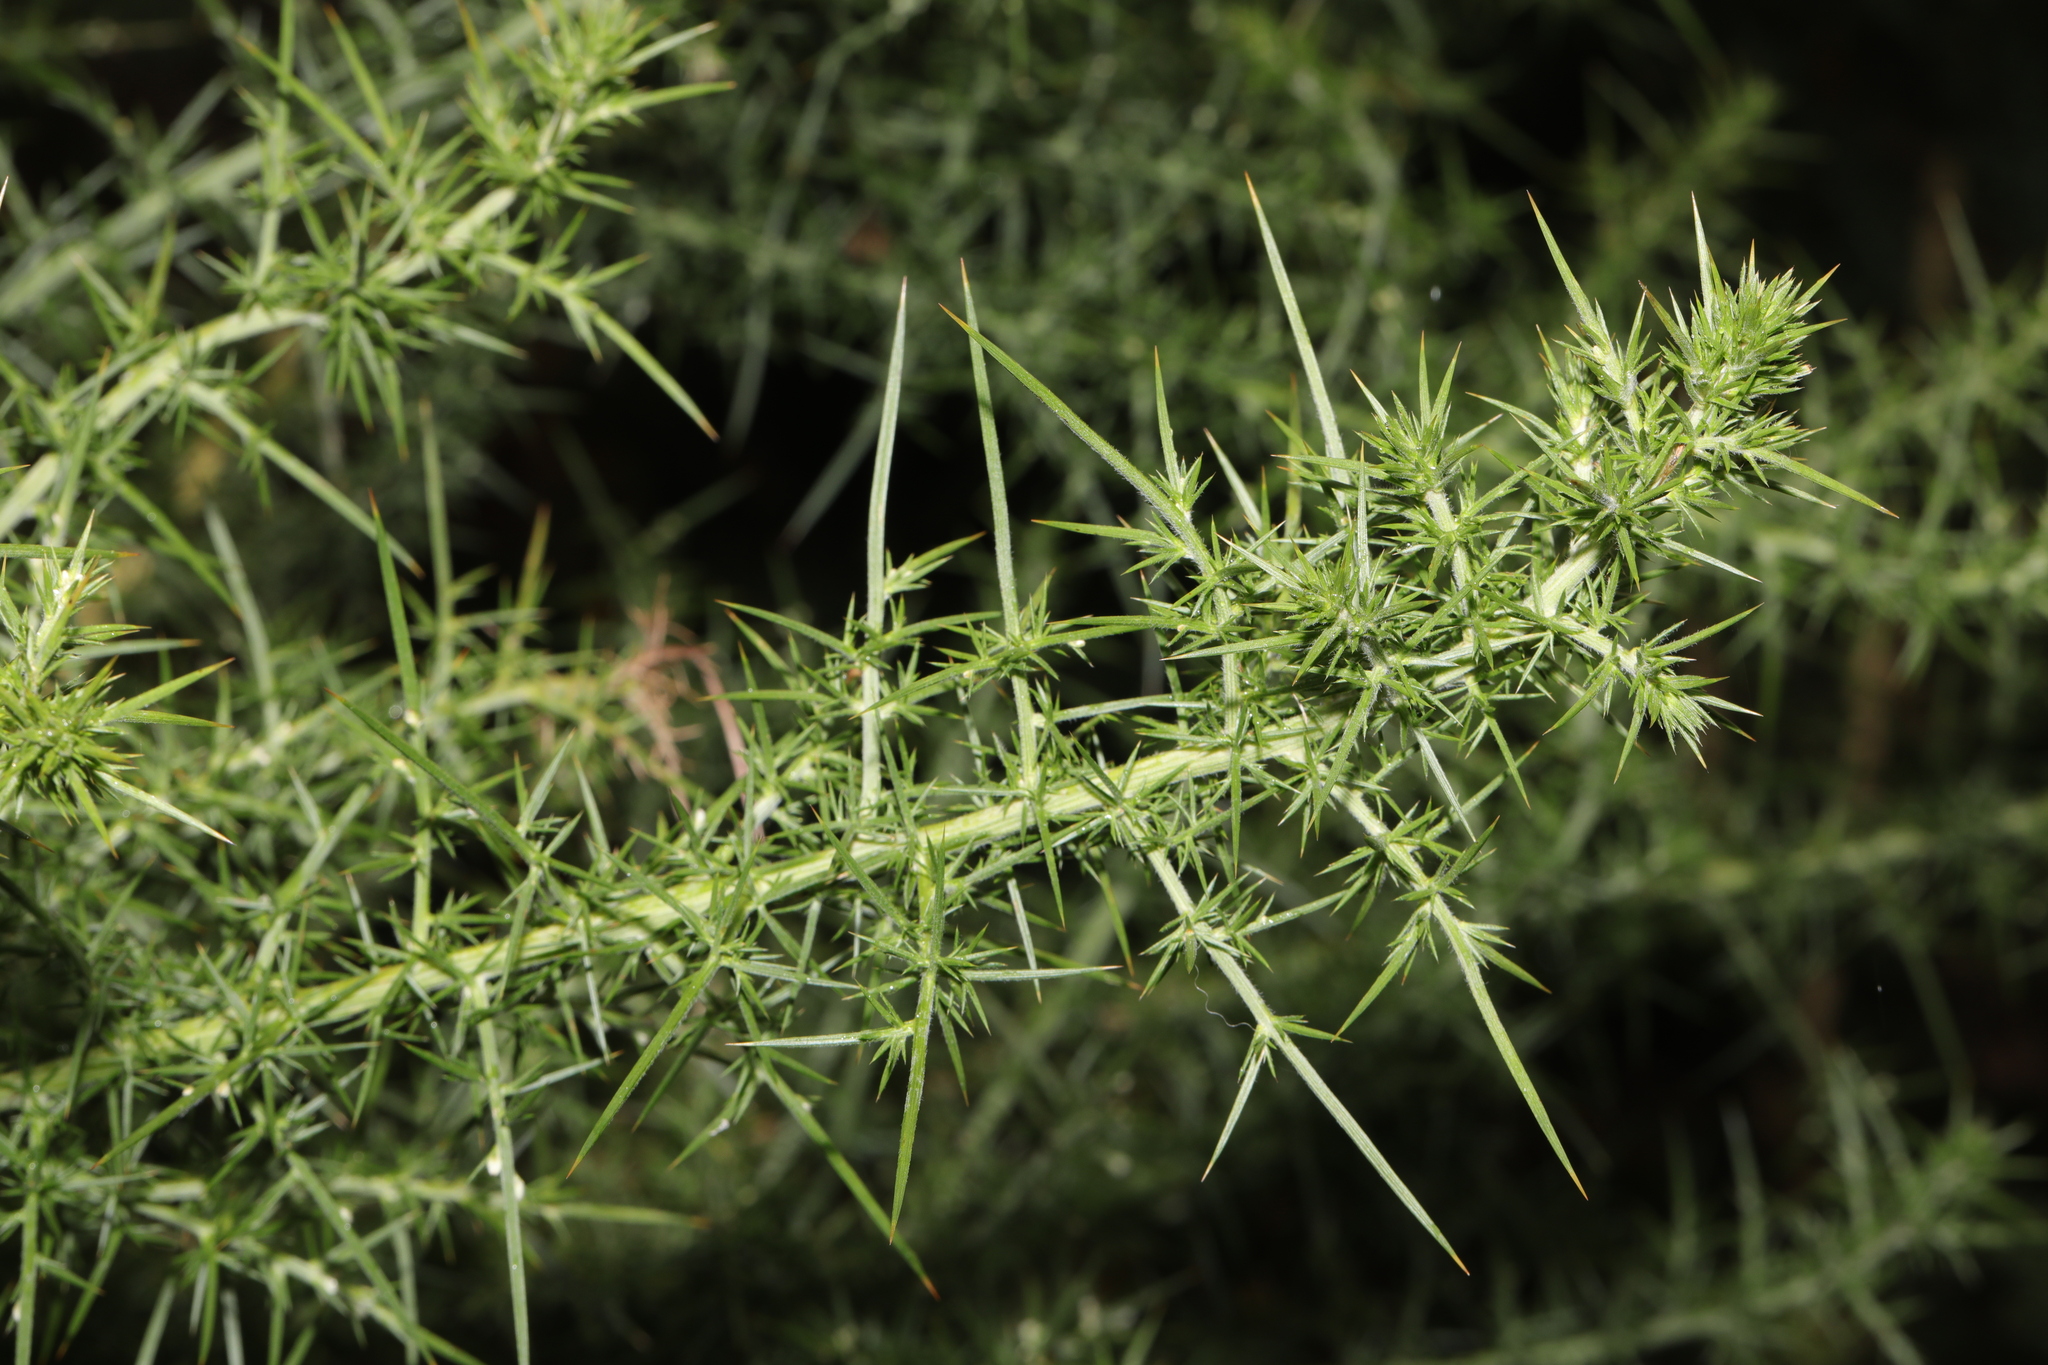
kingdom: Plantae
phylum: Tracheophyta
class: Magnoliopsida
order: Fabales
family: Fabaceae
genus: Ulex
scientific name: Ulex europaeus
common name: Common gorse
